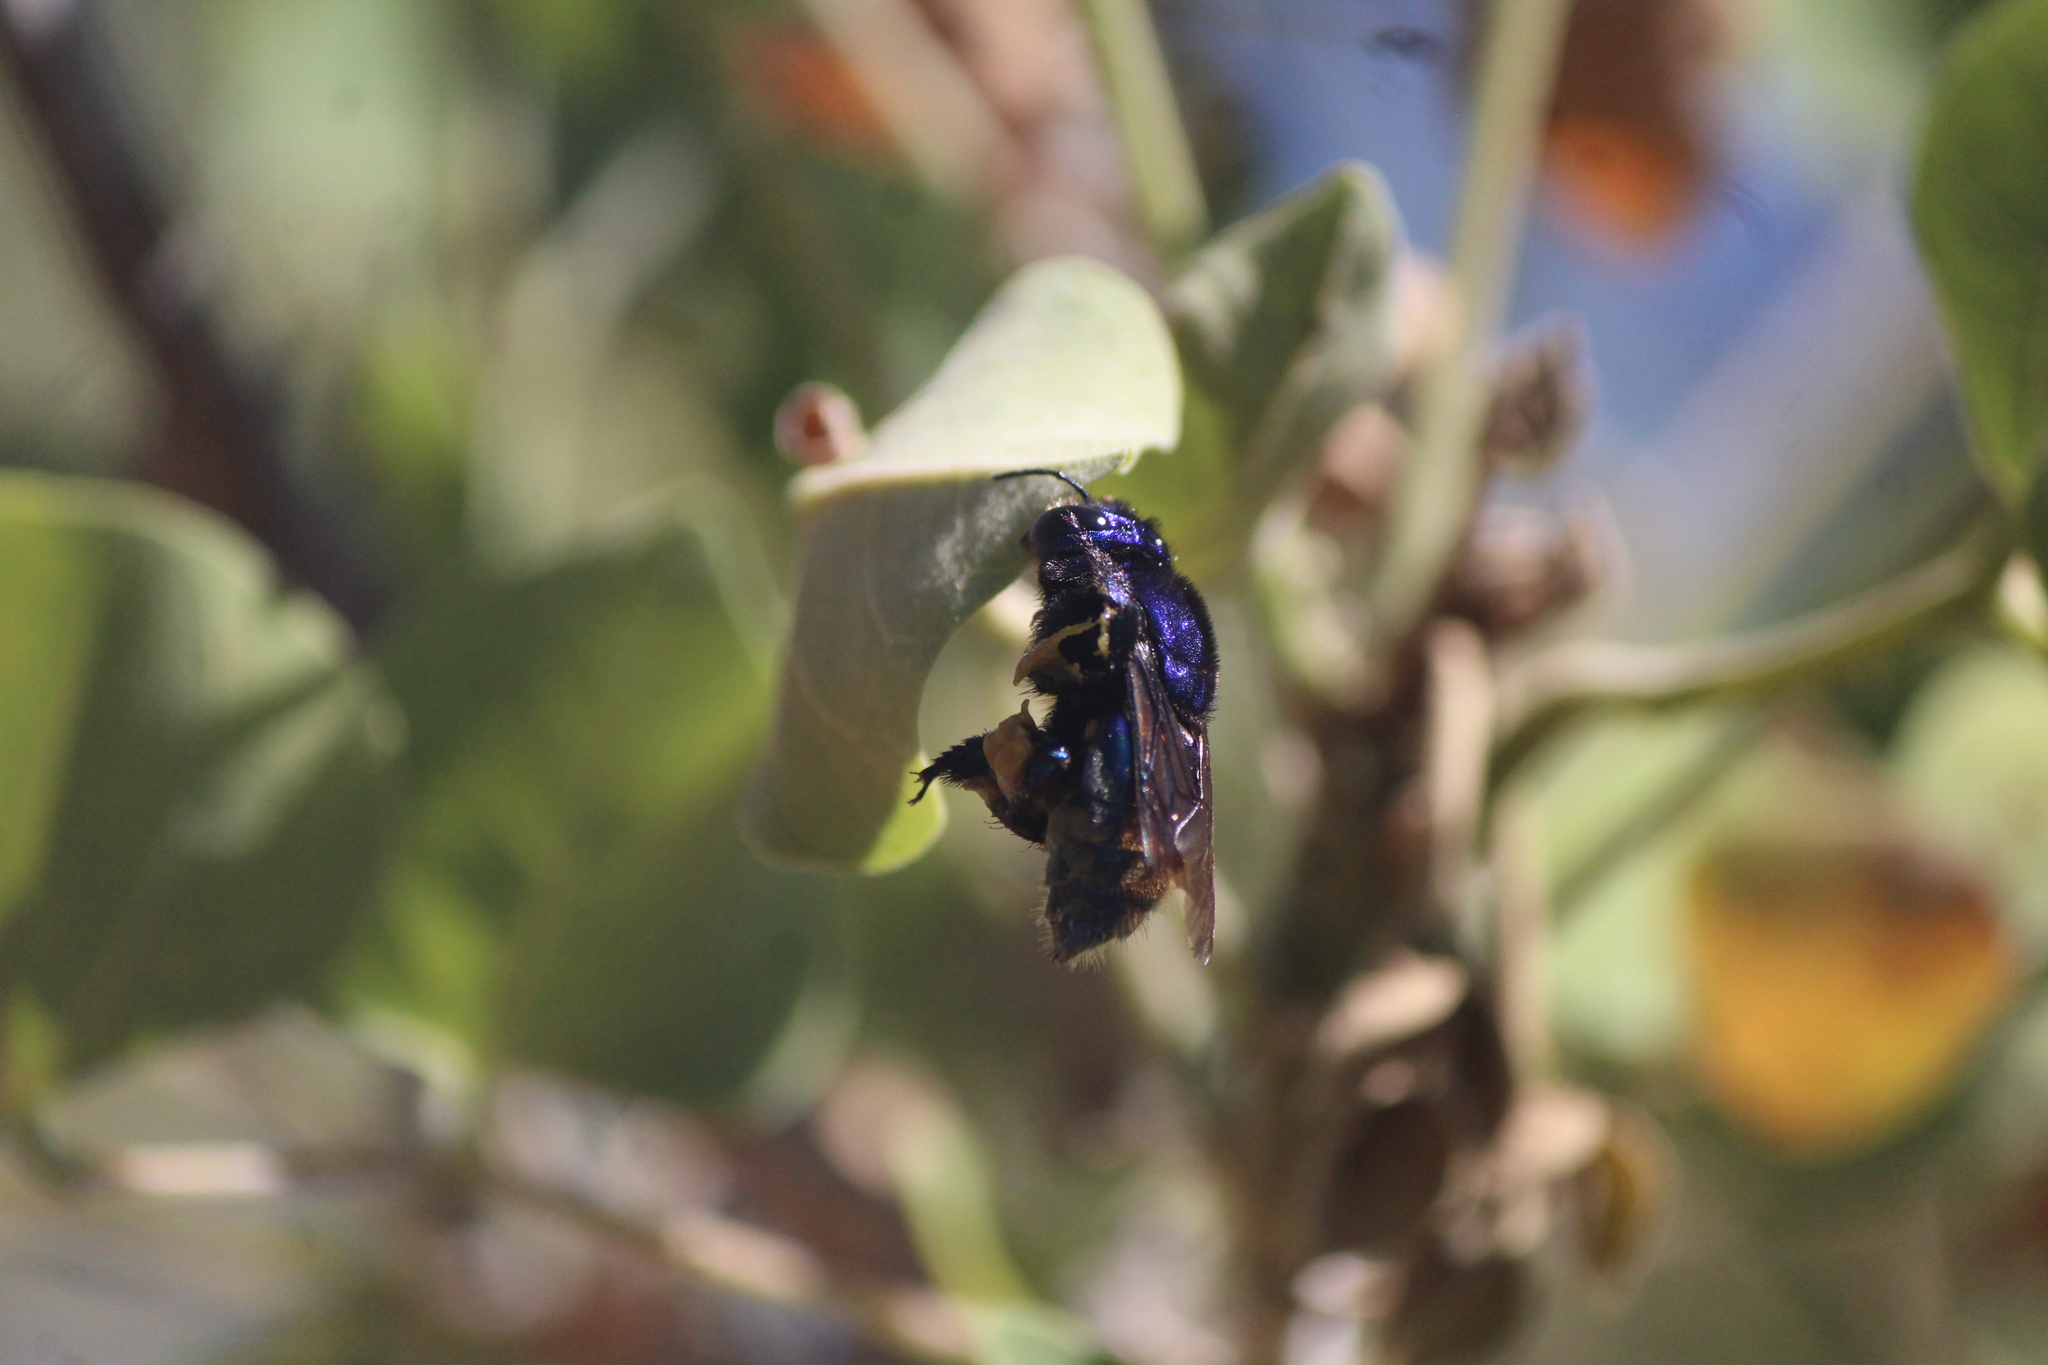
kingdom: Animalia
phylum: Arthropoda
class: Insecta
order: Hymenoptera
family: Apidae
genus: Eufriesea
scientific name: Eufriesea caerulescens
